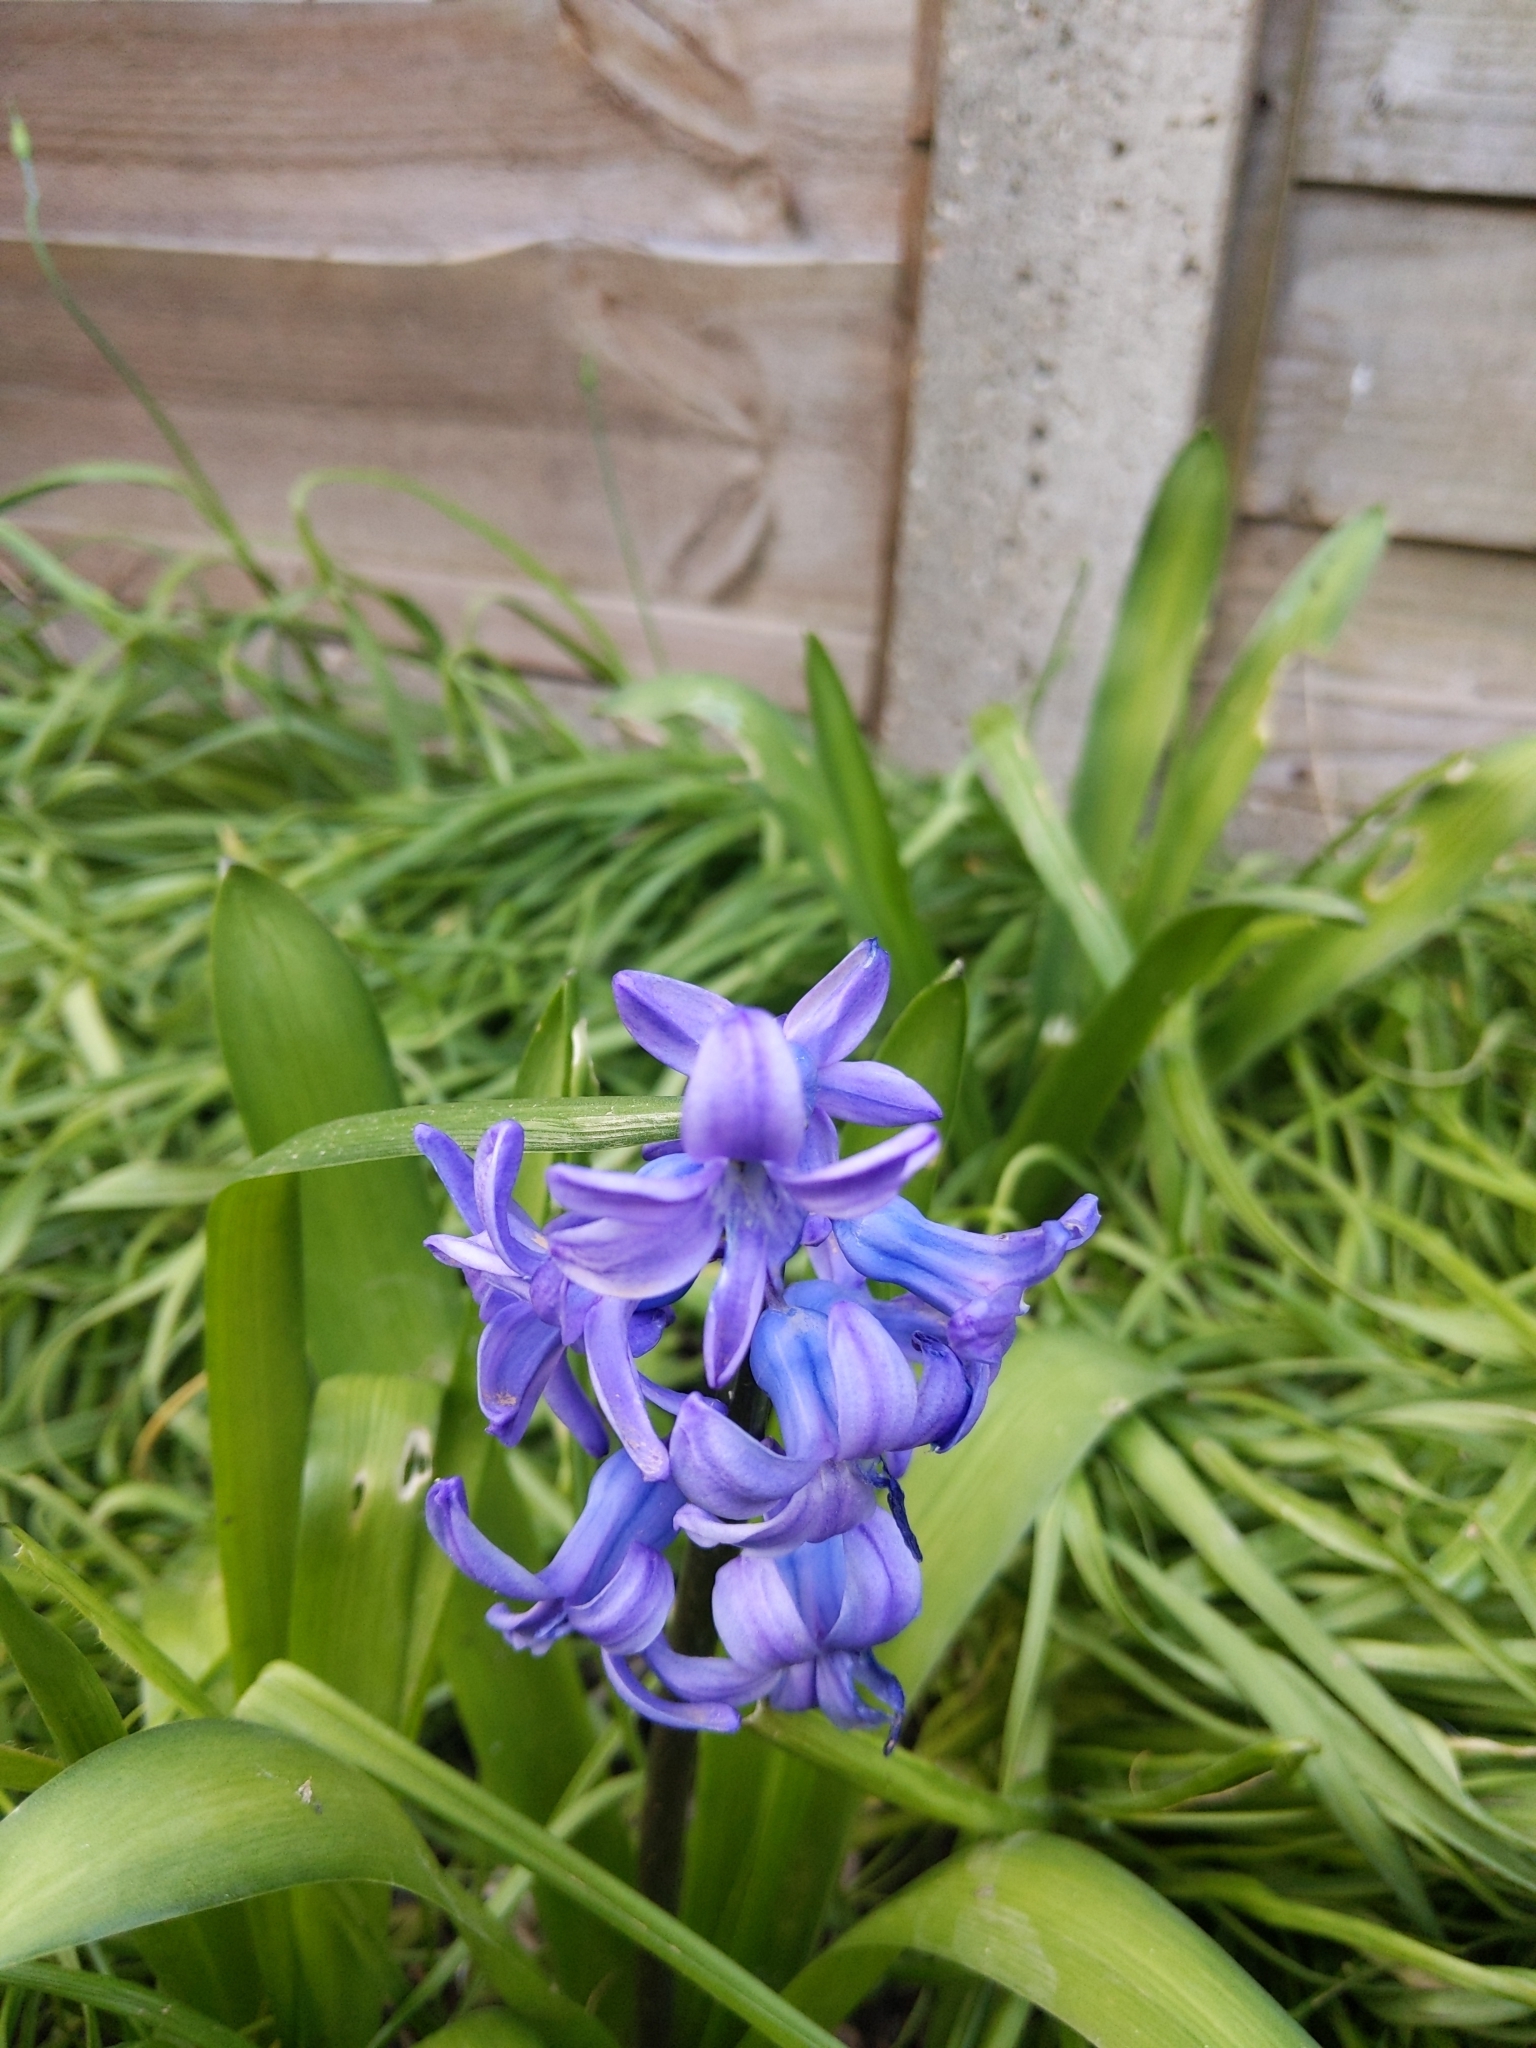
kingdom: Plantae
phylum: Tracheophyta
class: Liliopsida
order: Asparagales
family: Asparagaceae
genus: Hyacinthus
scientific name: Hyacinthus orientalis
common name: Hyacinth
